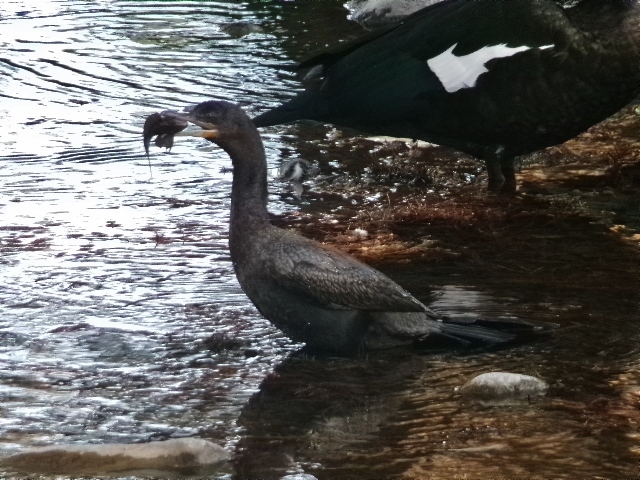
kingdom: Animalia
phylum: Chordata
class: Aves
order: Suliformes
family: Phalacrocoracidae
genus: Phalacrocorax
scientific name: Phalacrocorax brasilianus
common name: Neotropic cormorant
